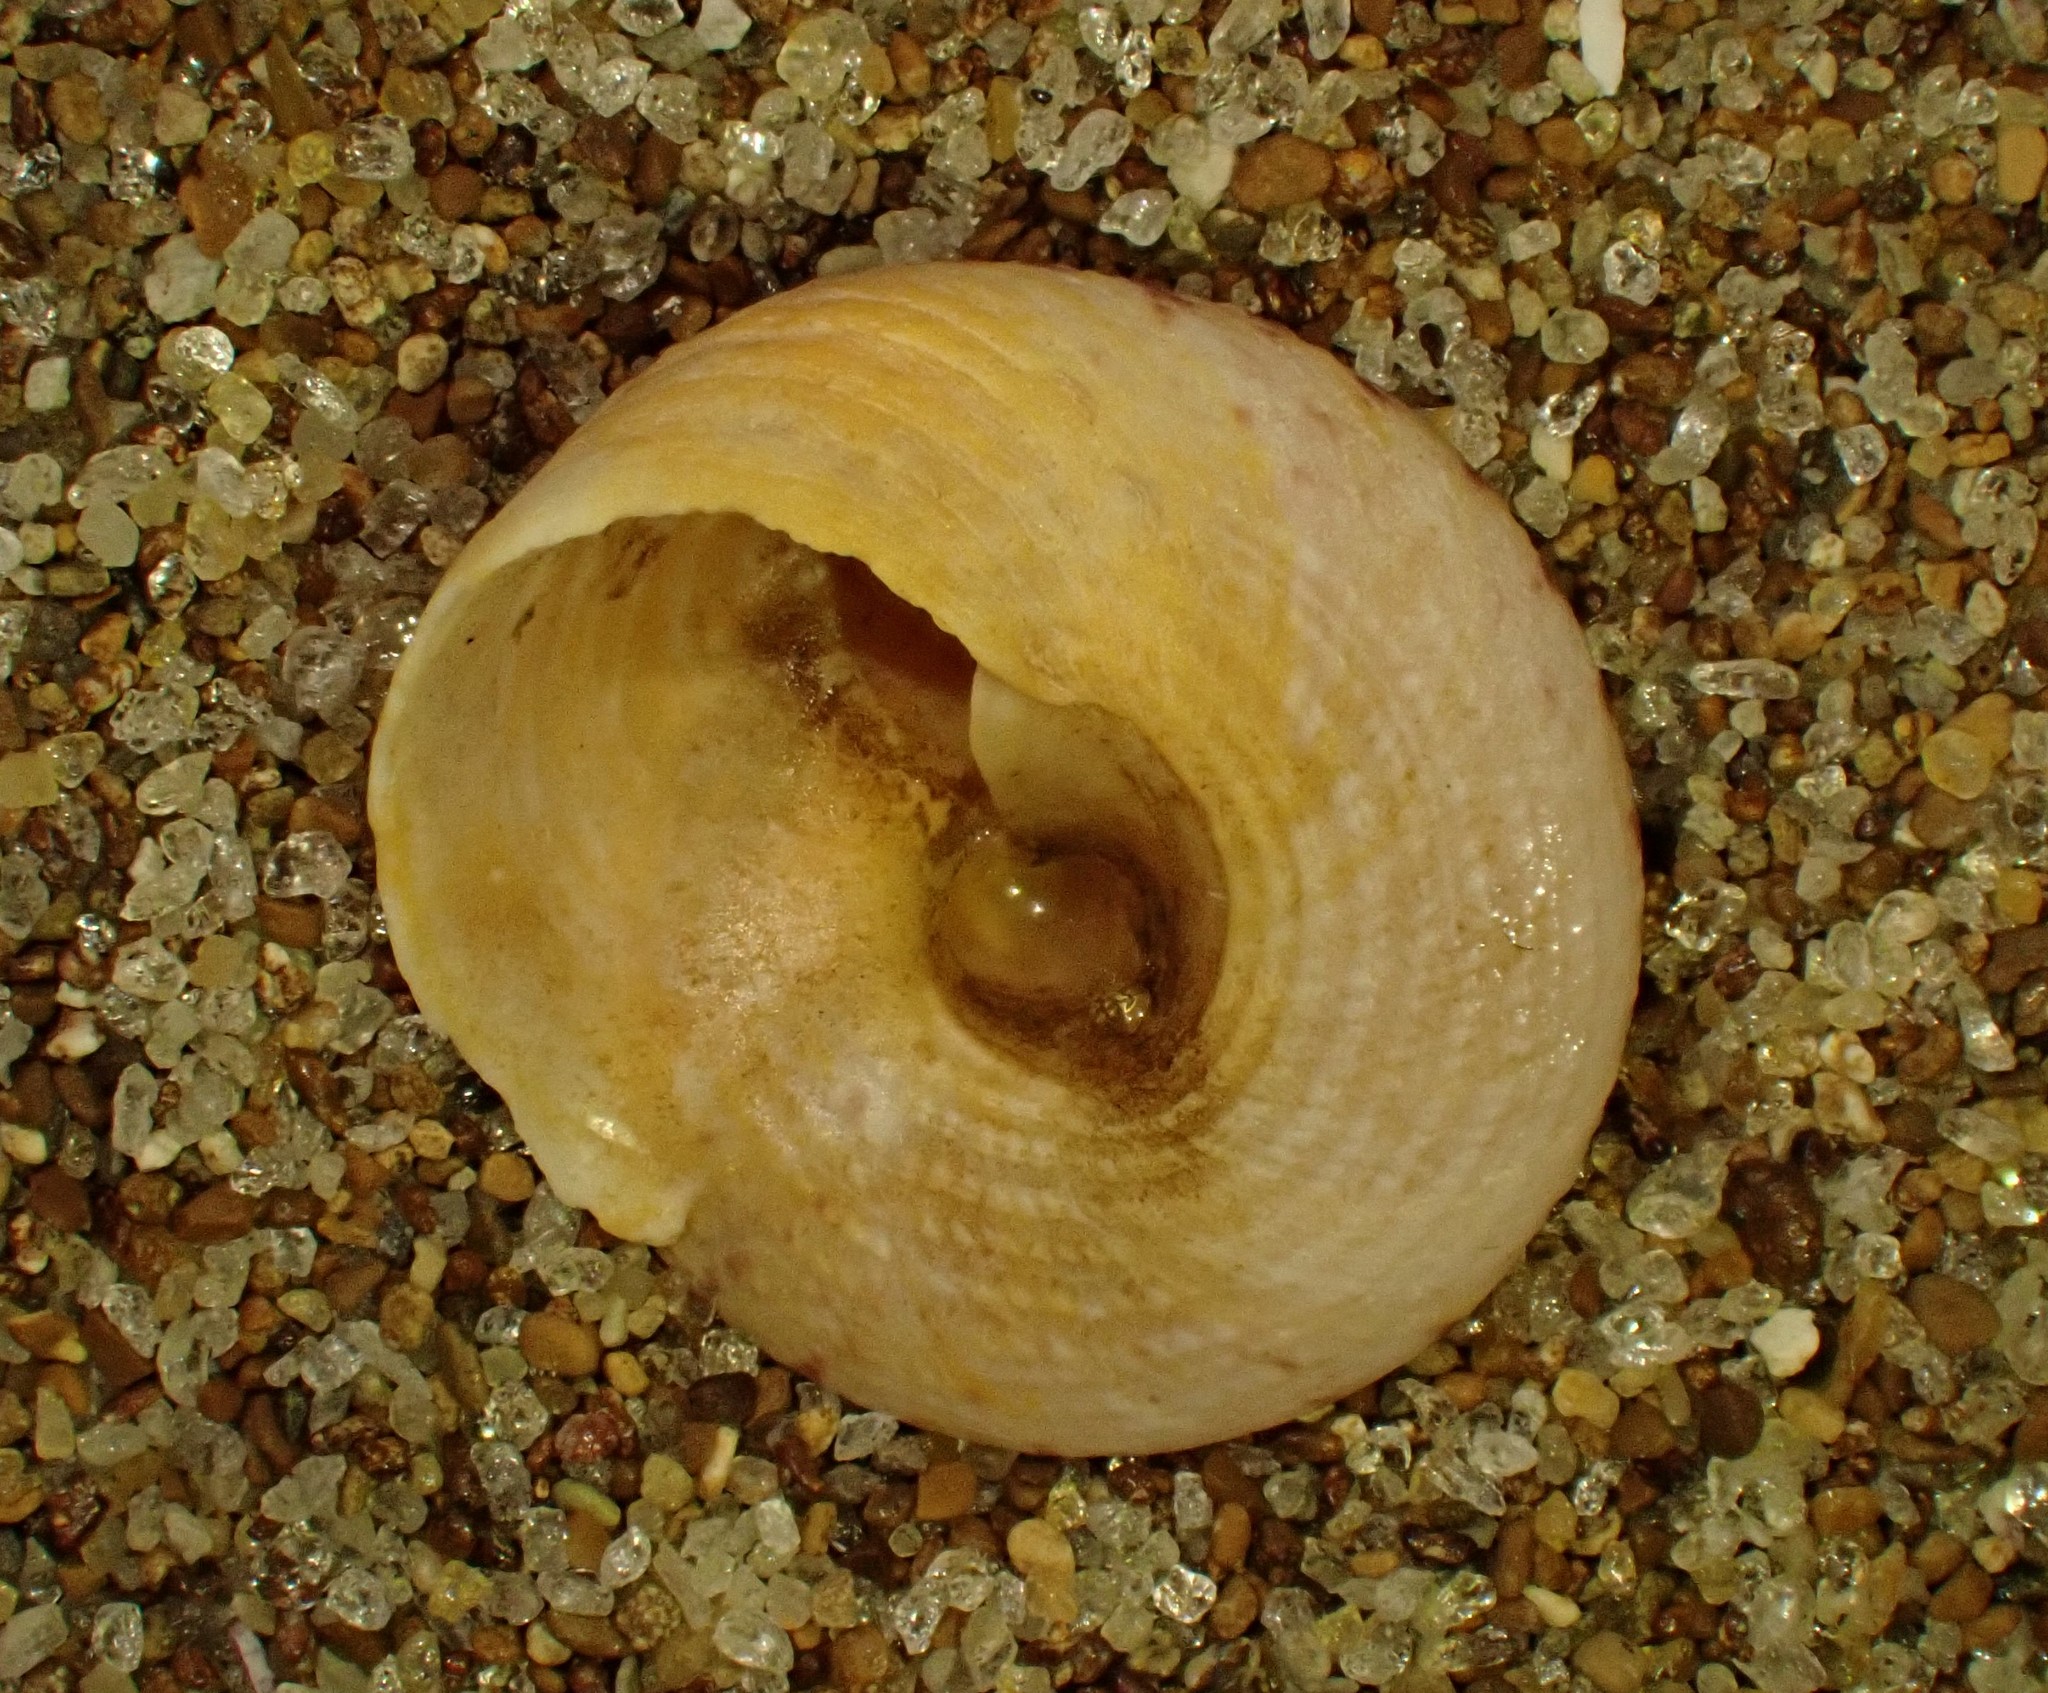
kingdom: Animalia
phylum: Mollusca
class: Gastropoda
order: Trochida
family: Trochidae
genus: Coelotrochus
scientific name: Coelotrochus tiaratus
